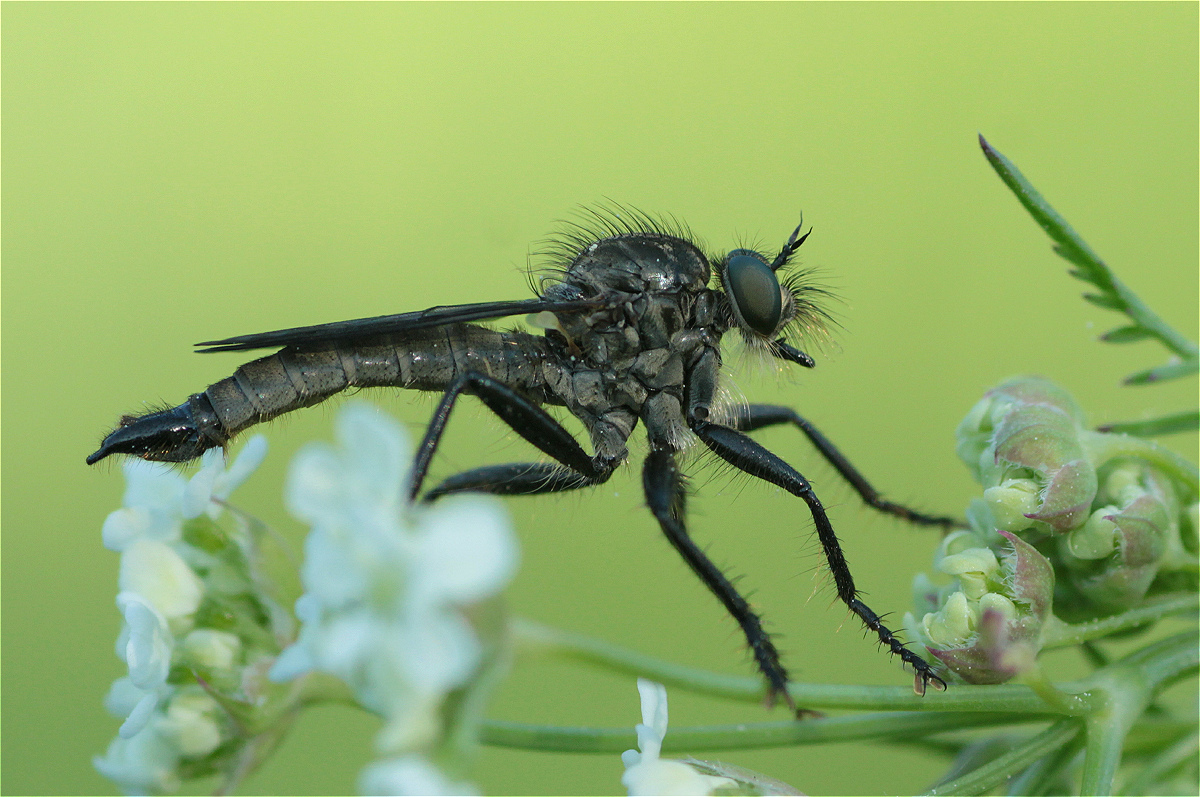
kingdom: Animalia
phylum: Arthropoda
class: Insecta
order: Diptera
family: Asilidae
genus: Didysmachus
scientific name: Didysmachus picipes
